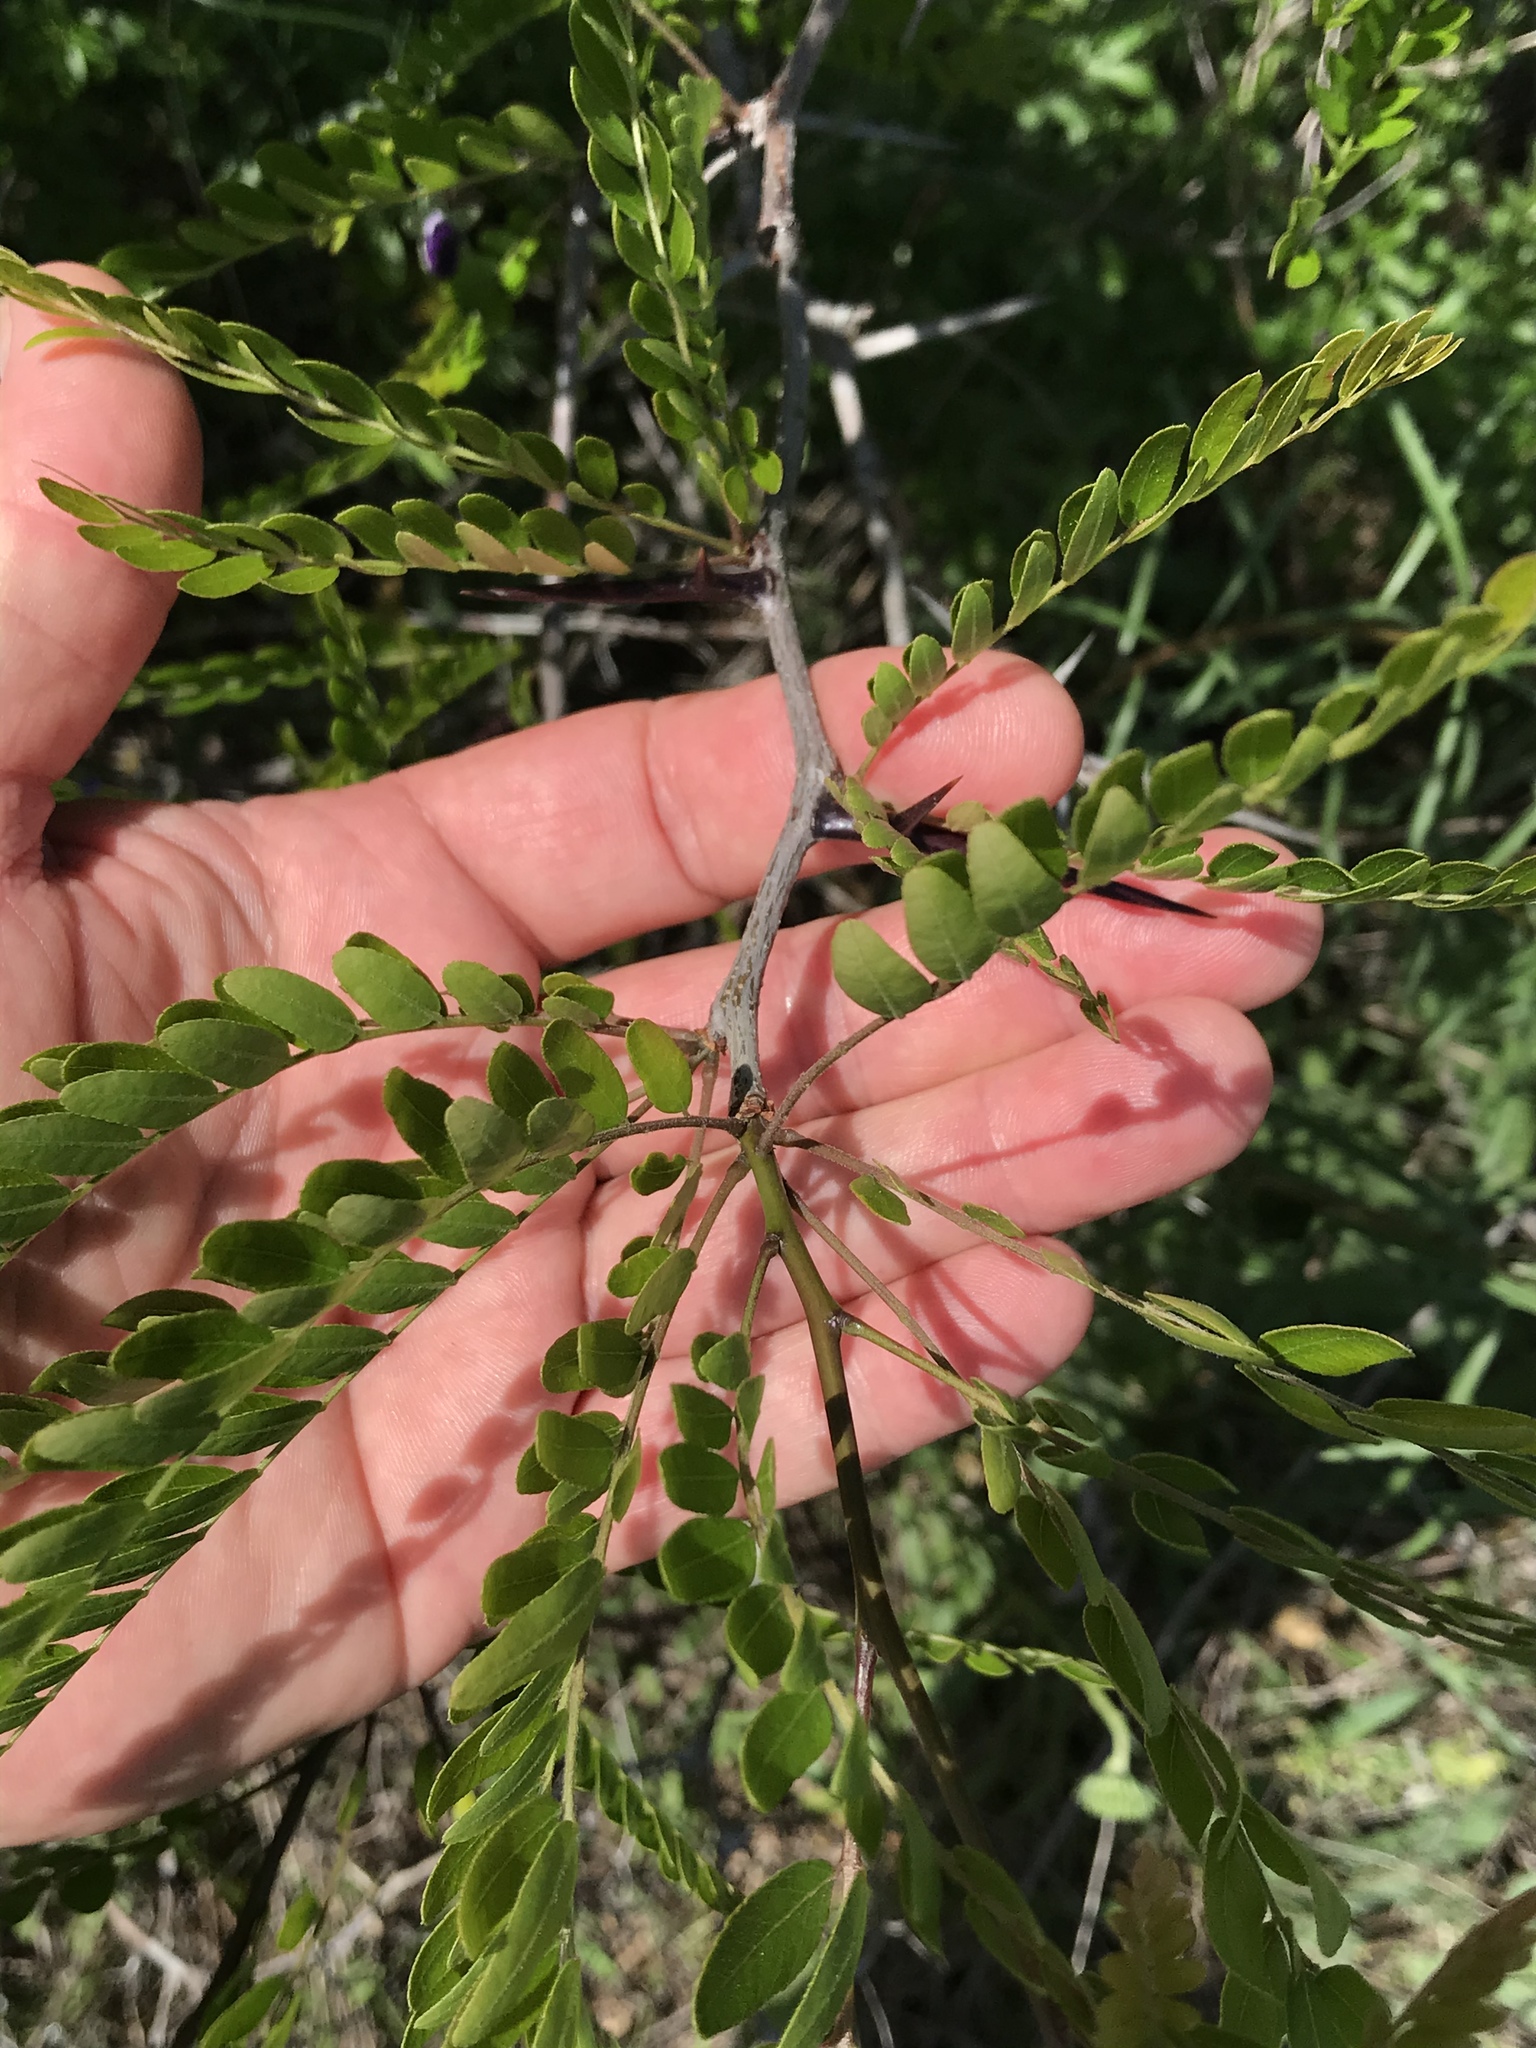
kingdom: Plantae
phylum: Tracheophyta
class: Magnoliopsida
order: Fabales
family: Fabaceae
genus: Gleditsia
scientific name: Gleditsia triacanthos
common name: Common honeylocust
